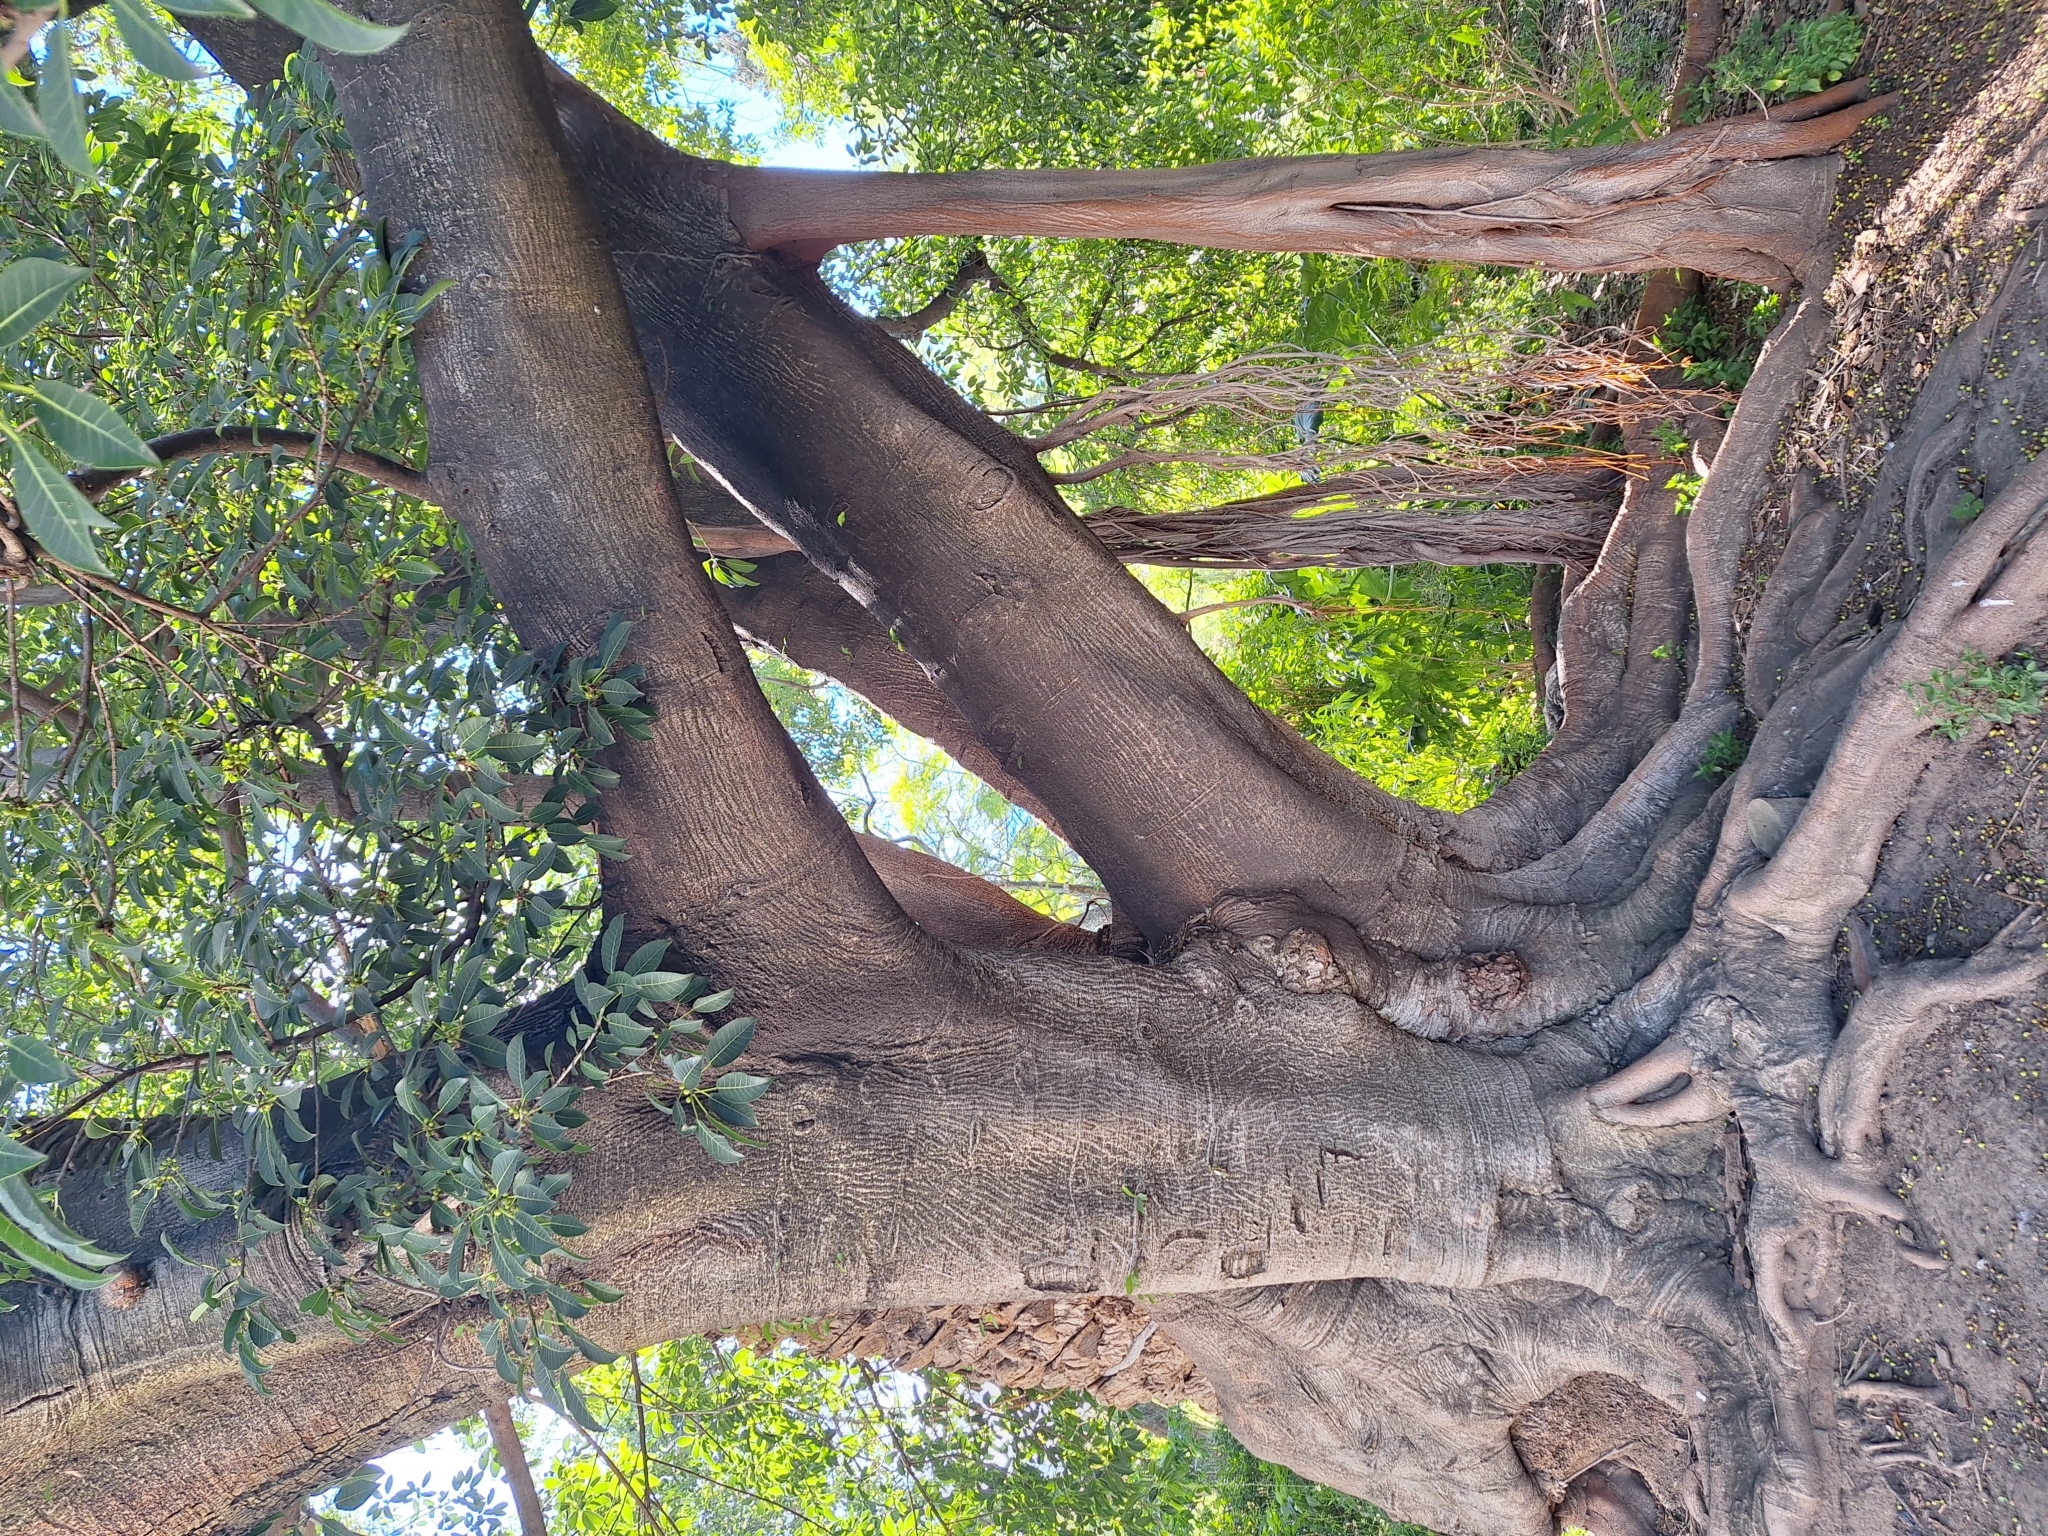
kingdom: Plantae
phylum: Tracheophyta
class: Magnoliopsida
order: Rosales
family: Moraceae
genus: Ficus
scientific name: Ficus luschnathiana
